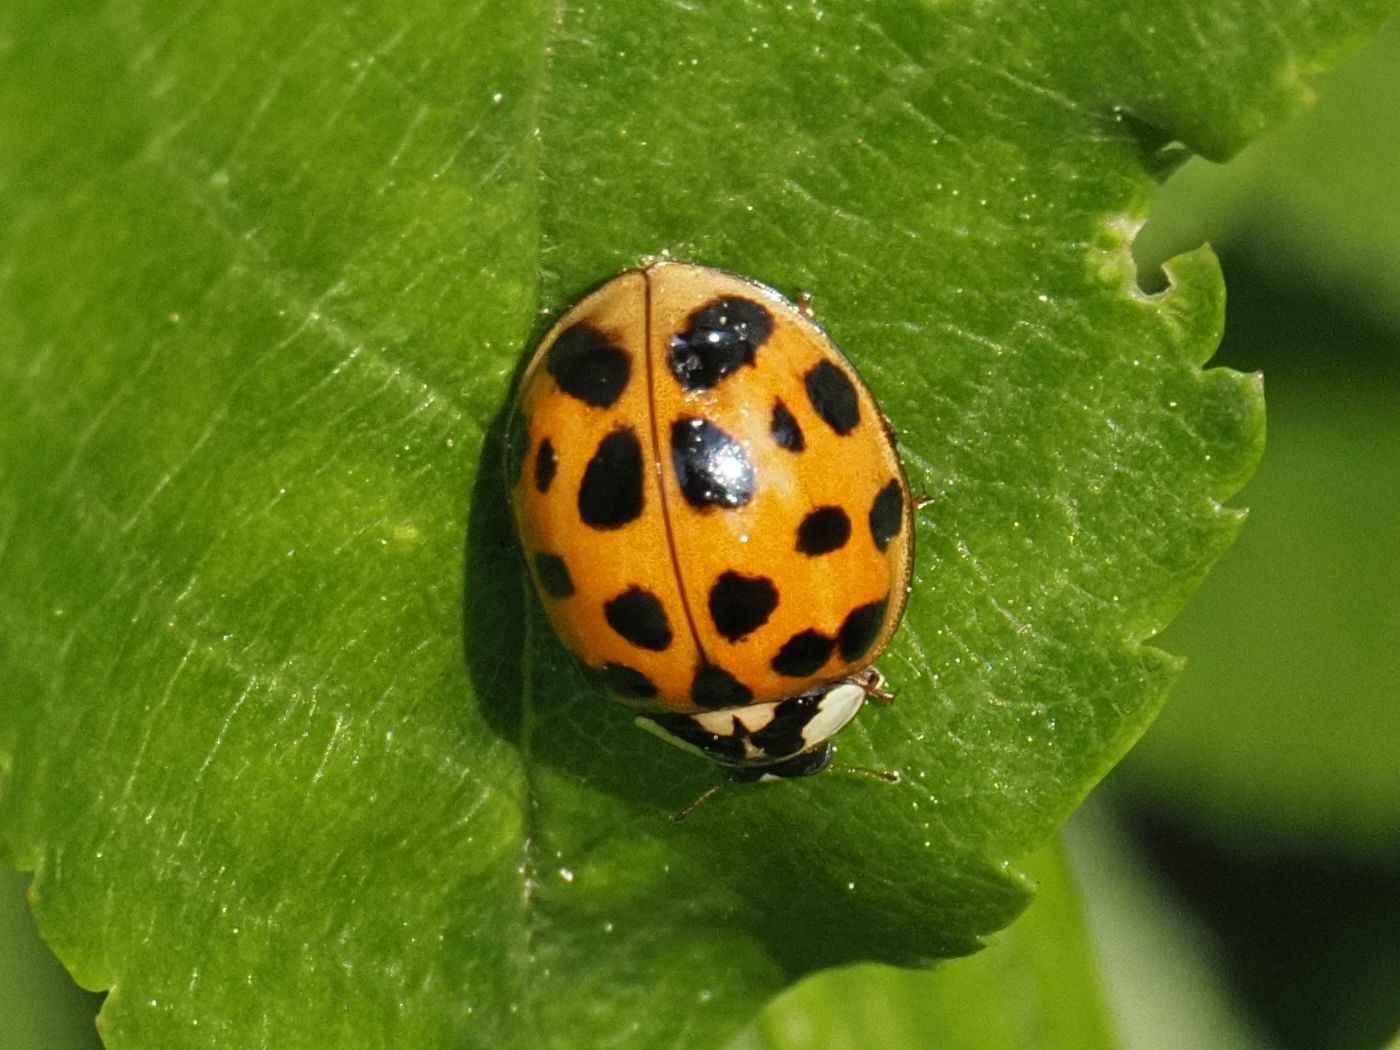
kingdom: Animalia
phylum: Arthropoda
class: Insecta
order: Coleoptera
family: Coccinellidae
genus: Harmonia
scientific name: Harmonia axyridis
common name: Harlequin ladybird
